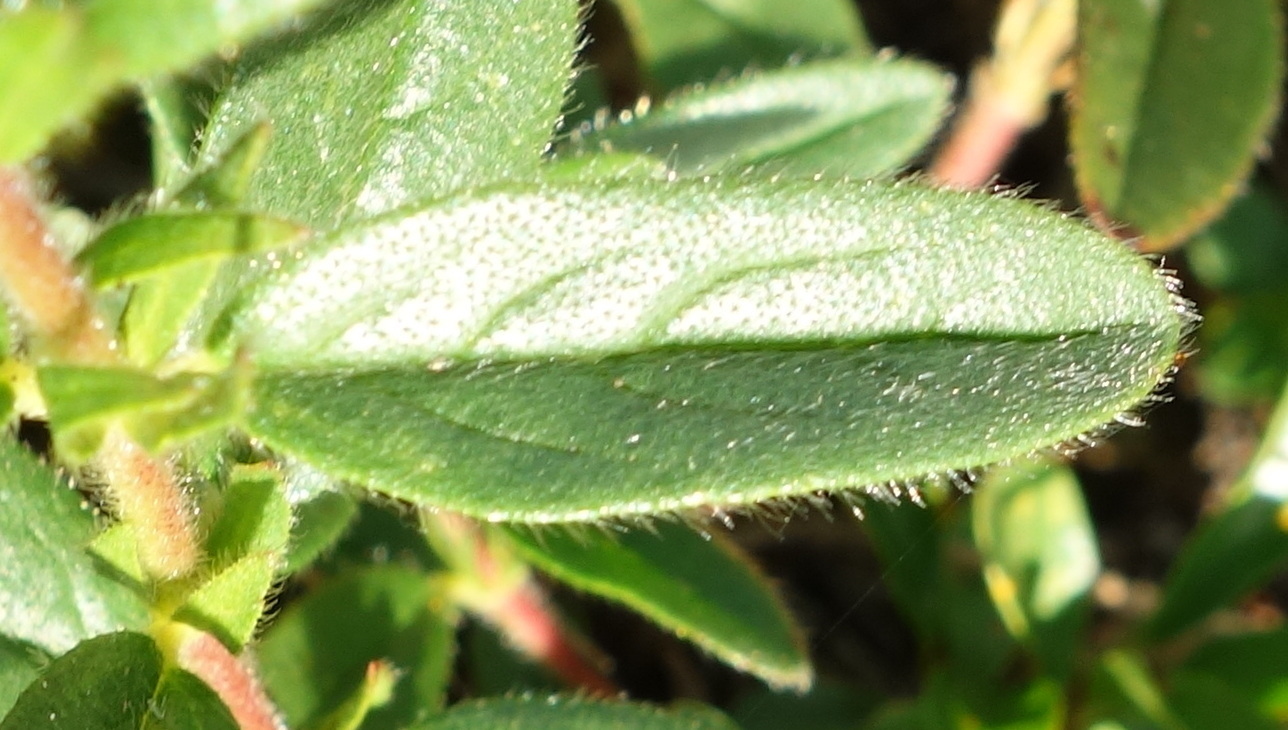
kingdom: Plantae
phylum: Tracheophyta
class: Magnoliopsida
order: Malvales
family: Cistaceae
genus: Helianthemum
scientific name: Helianthemum nummularium
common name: Common rock-rose
